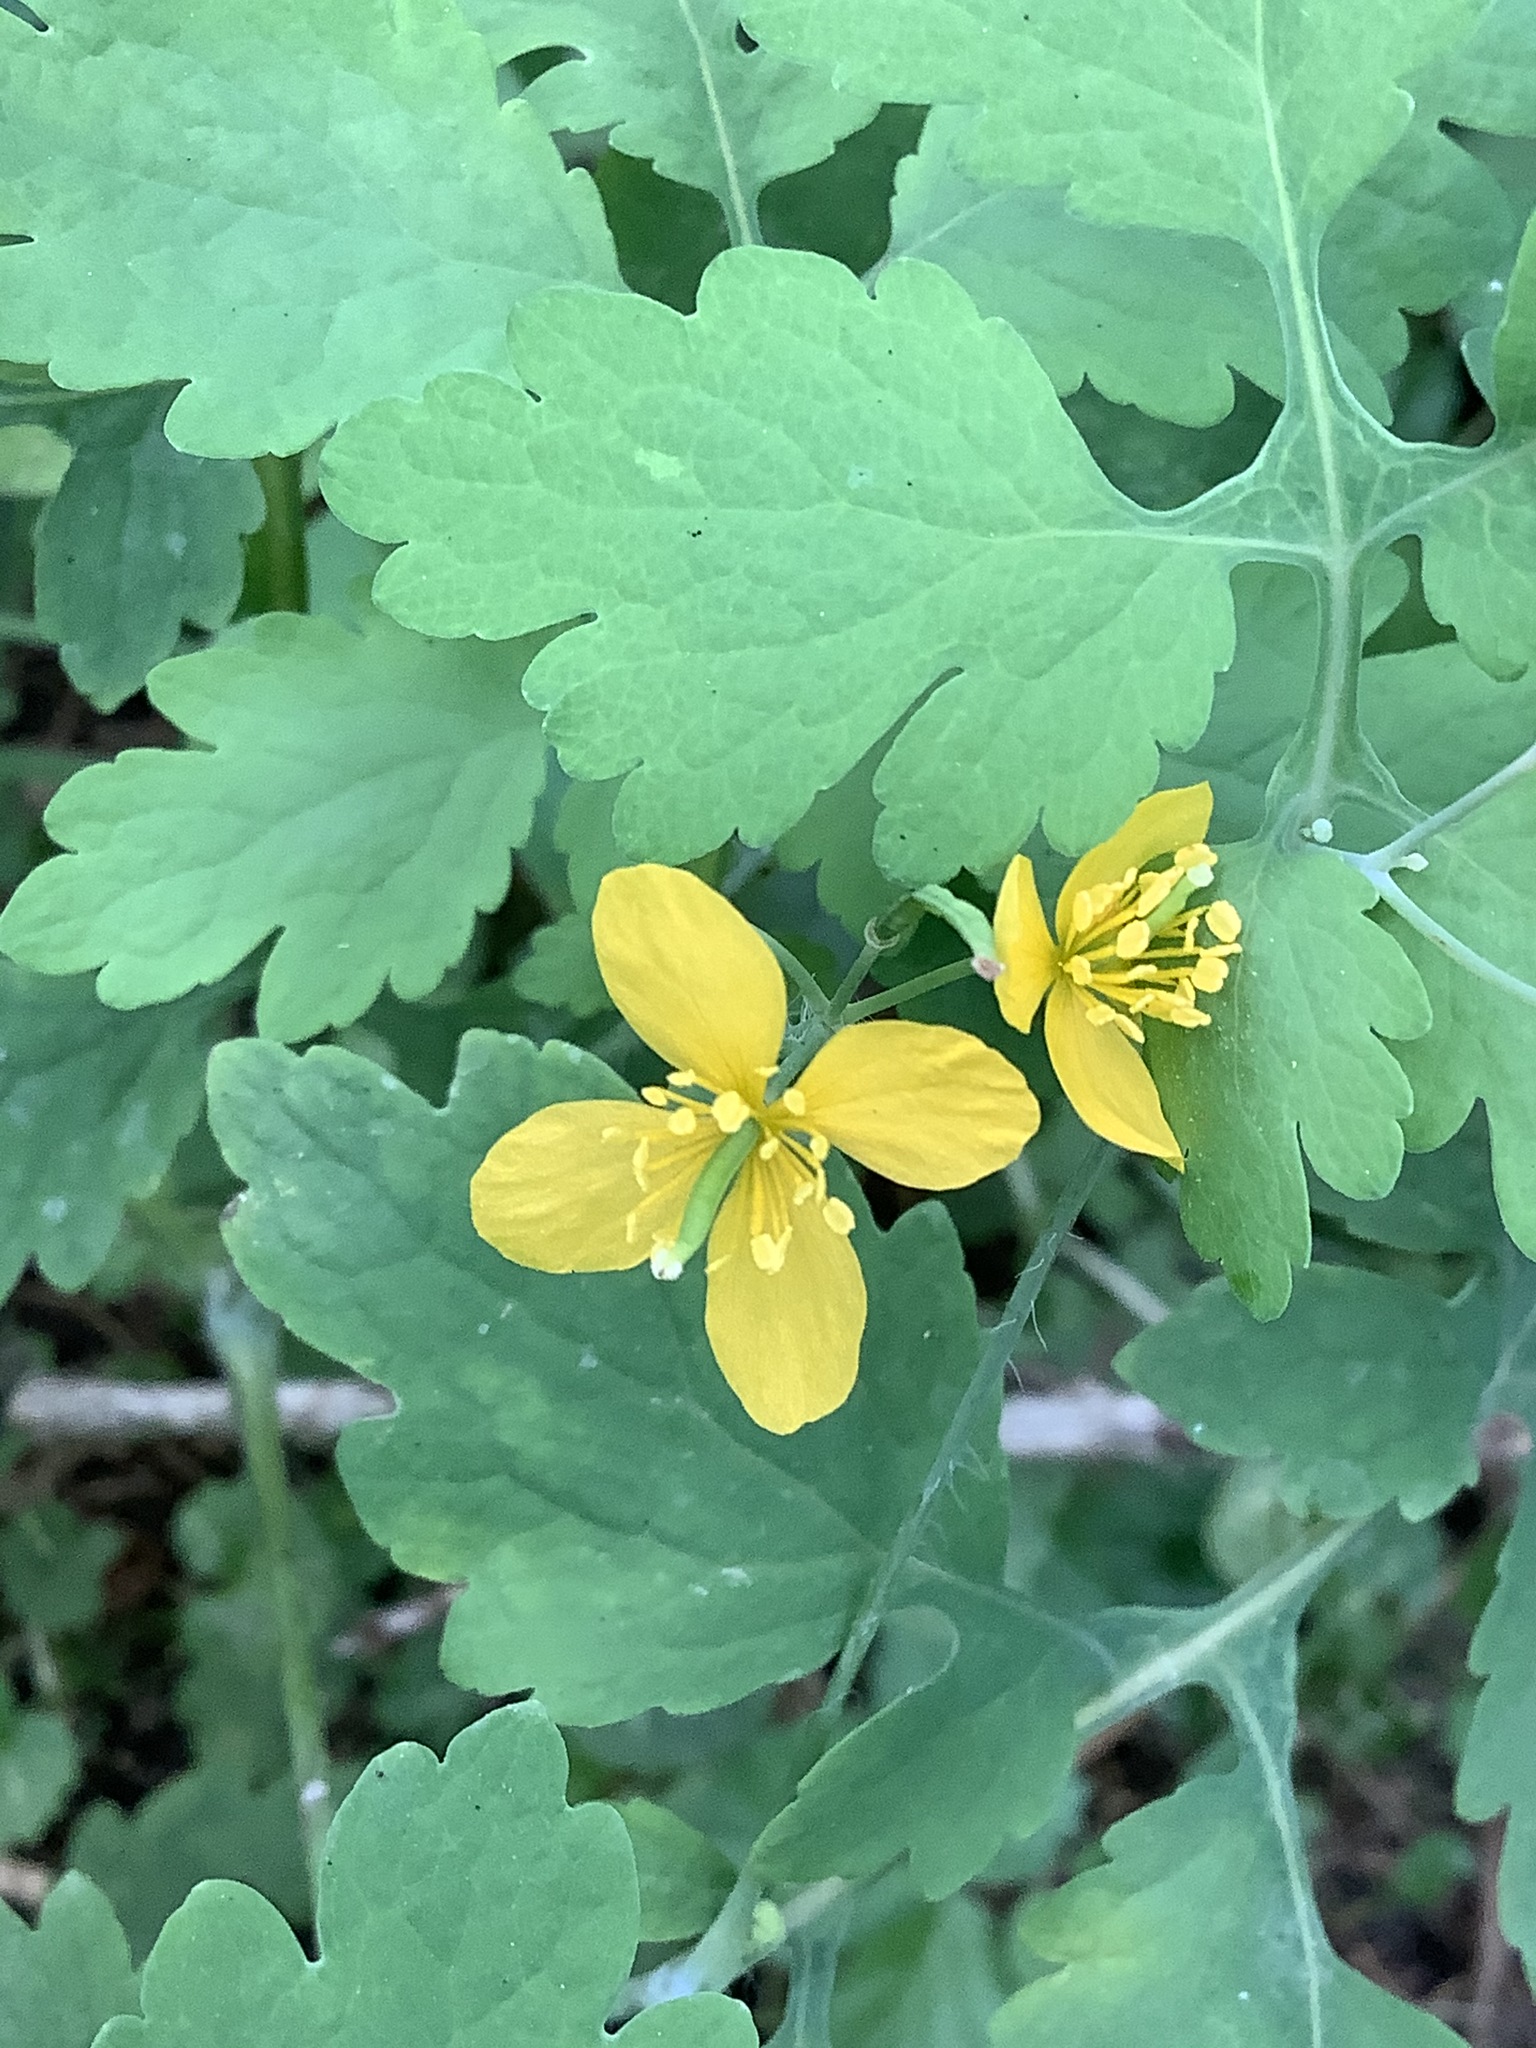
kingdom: Plantae
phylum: Tracheophyta
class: Magnoliopsida
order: Ranunculales
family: Papaveraceae
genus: Chelidonium
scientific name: Chelidonium majus
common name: Greater celandine
